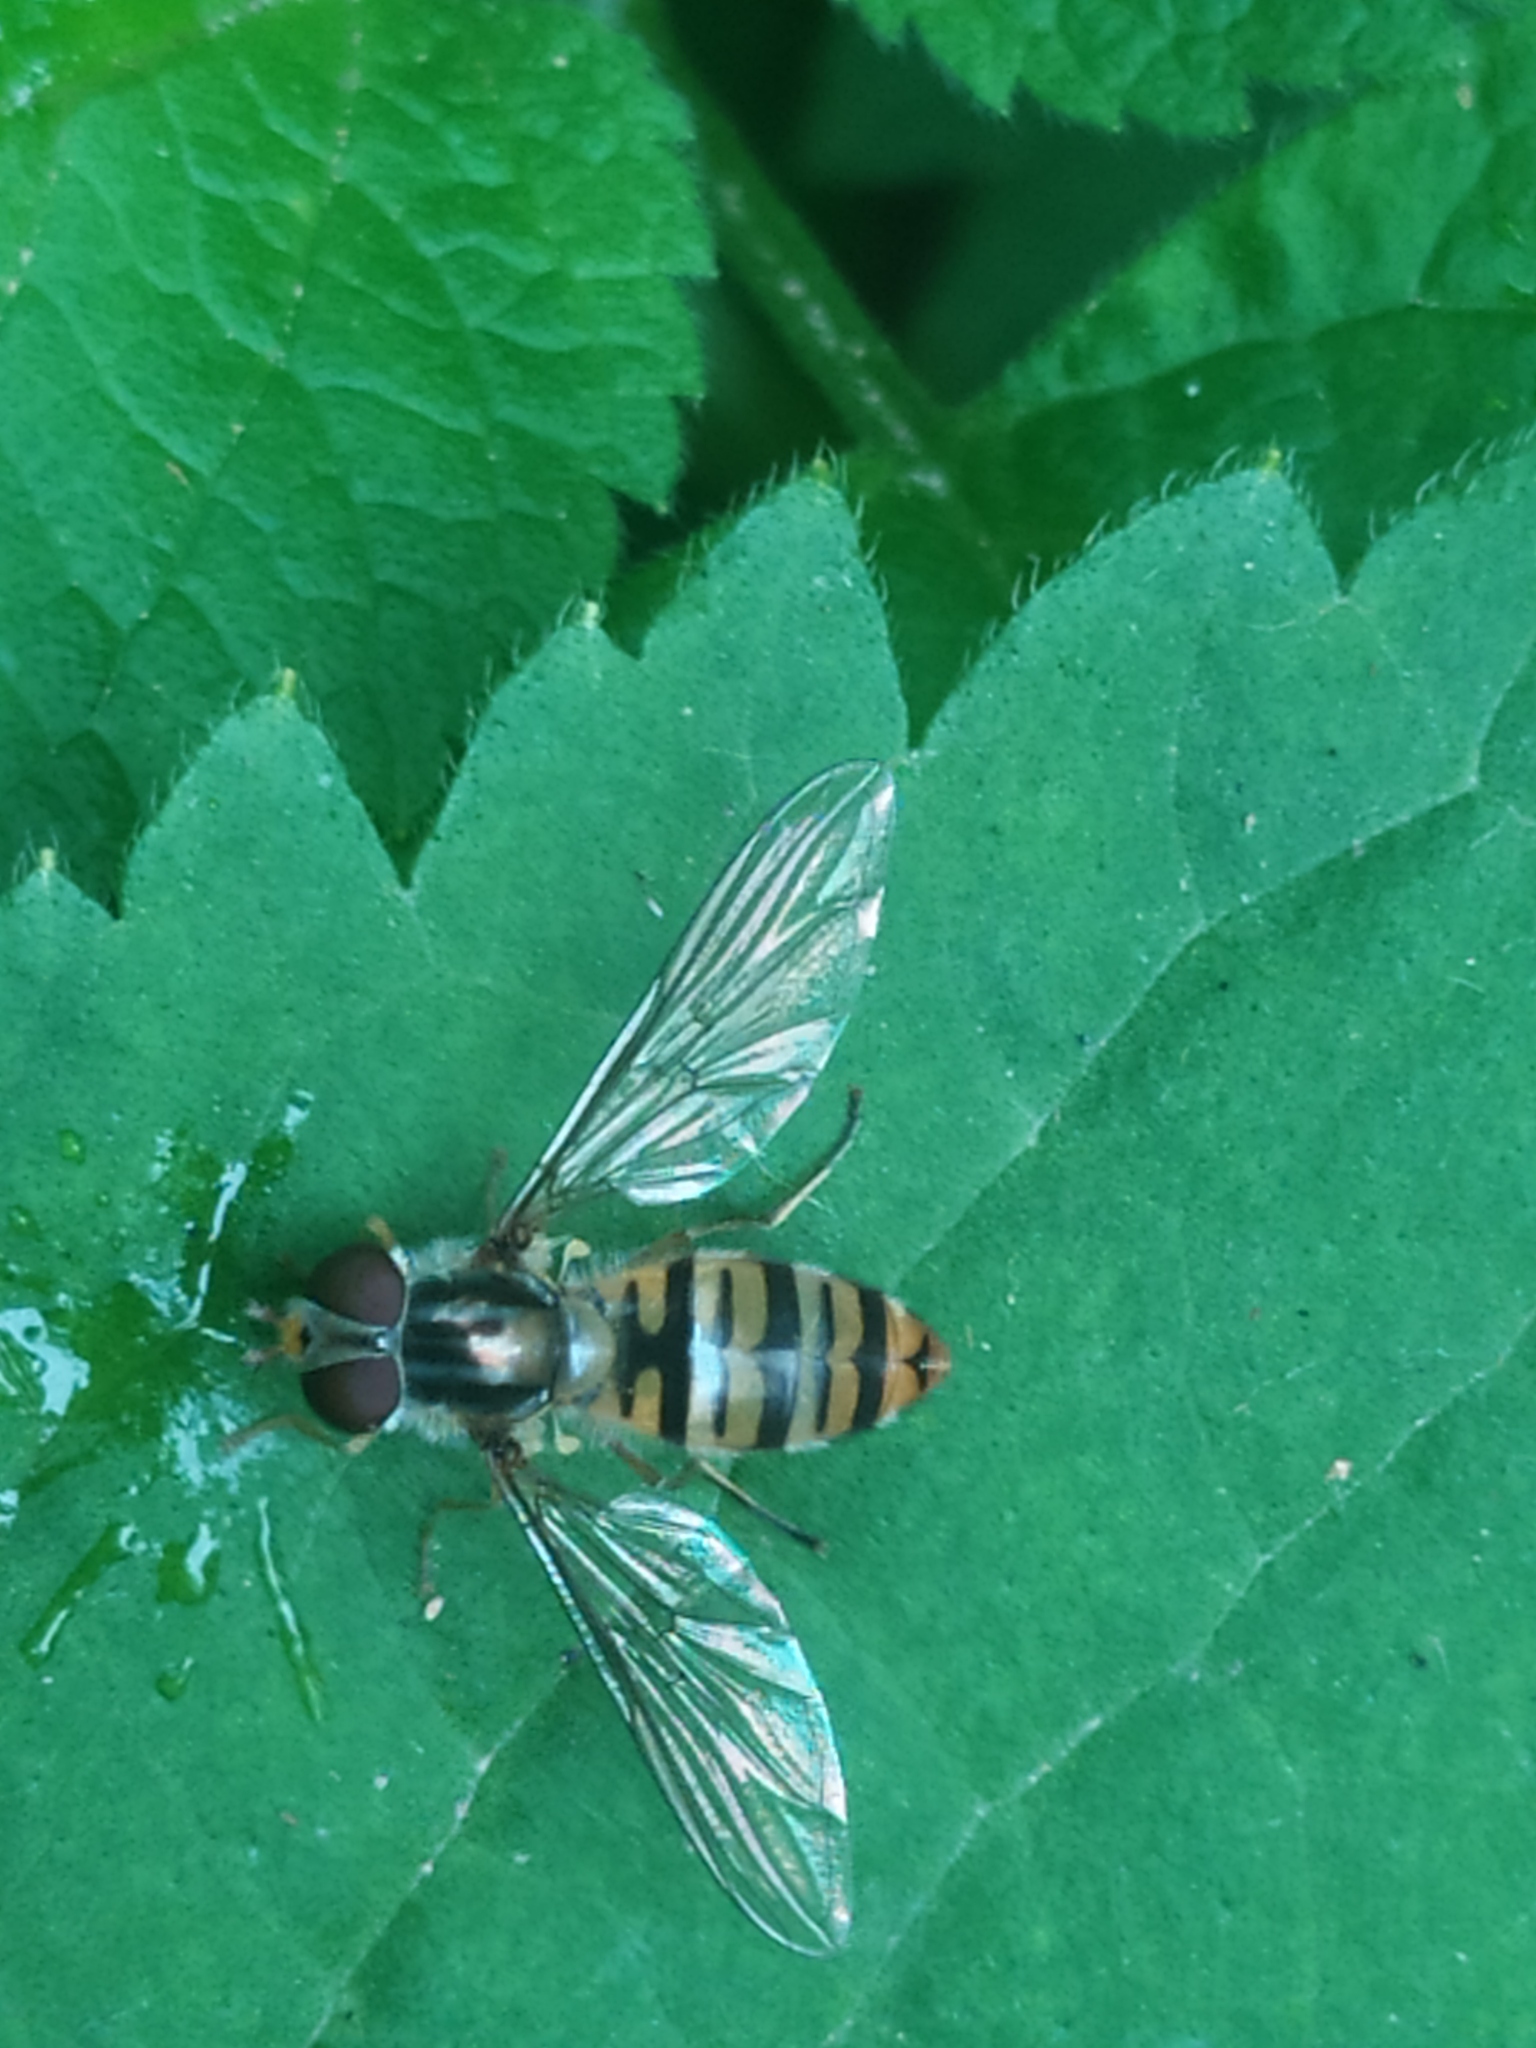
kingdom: Animalia
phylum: Arthropoda
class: Insecta
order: Diptera
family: Syrphidae
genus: Episyrphus
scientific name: Episyrphus balteatus
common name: Marmalade hoverfly
